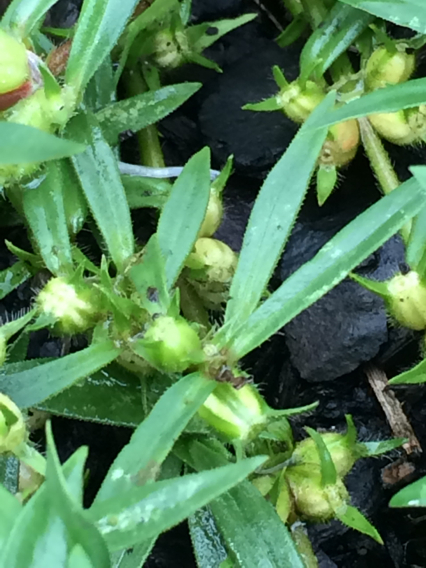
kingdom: Plantae
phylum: Tracheophyta
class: Magnoliopsida
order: Gentianales
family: Rubiaceae
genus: Diodia
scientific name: Diodia virginiana
